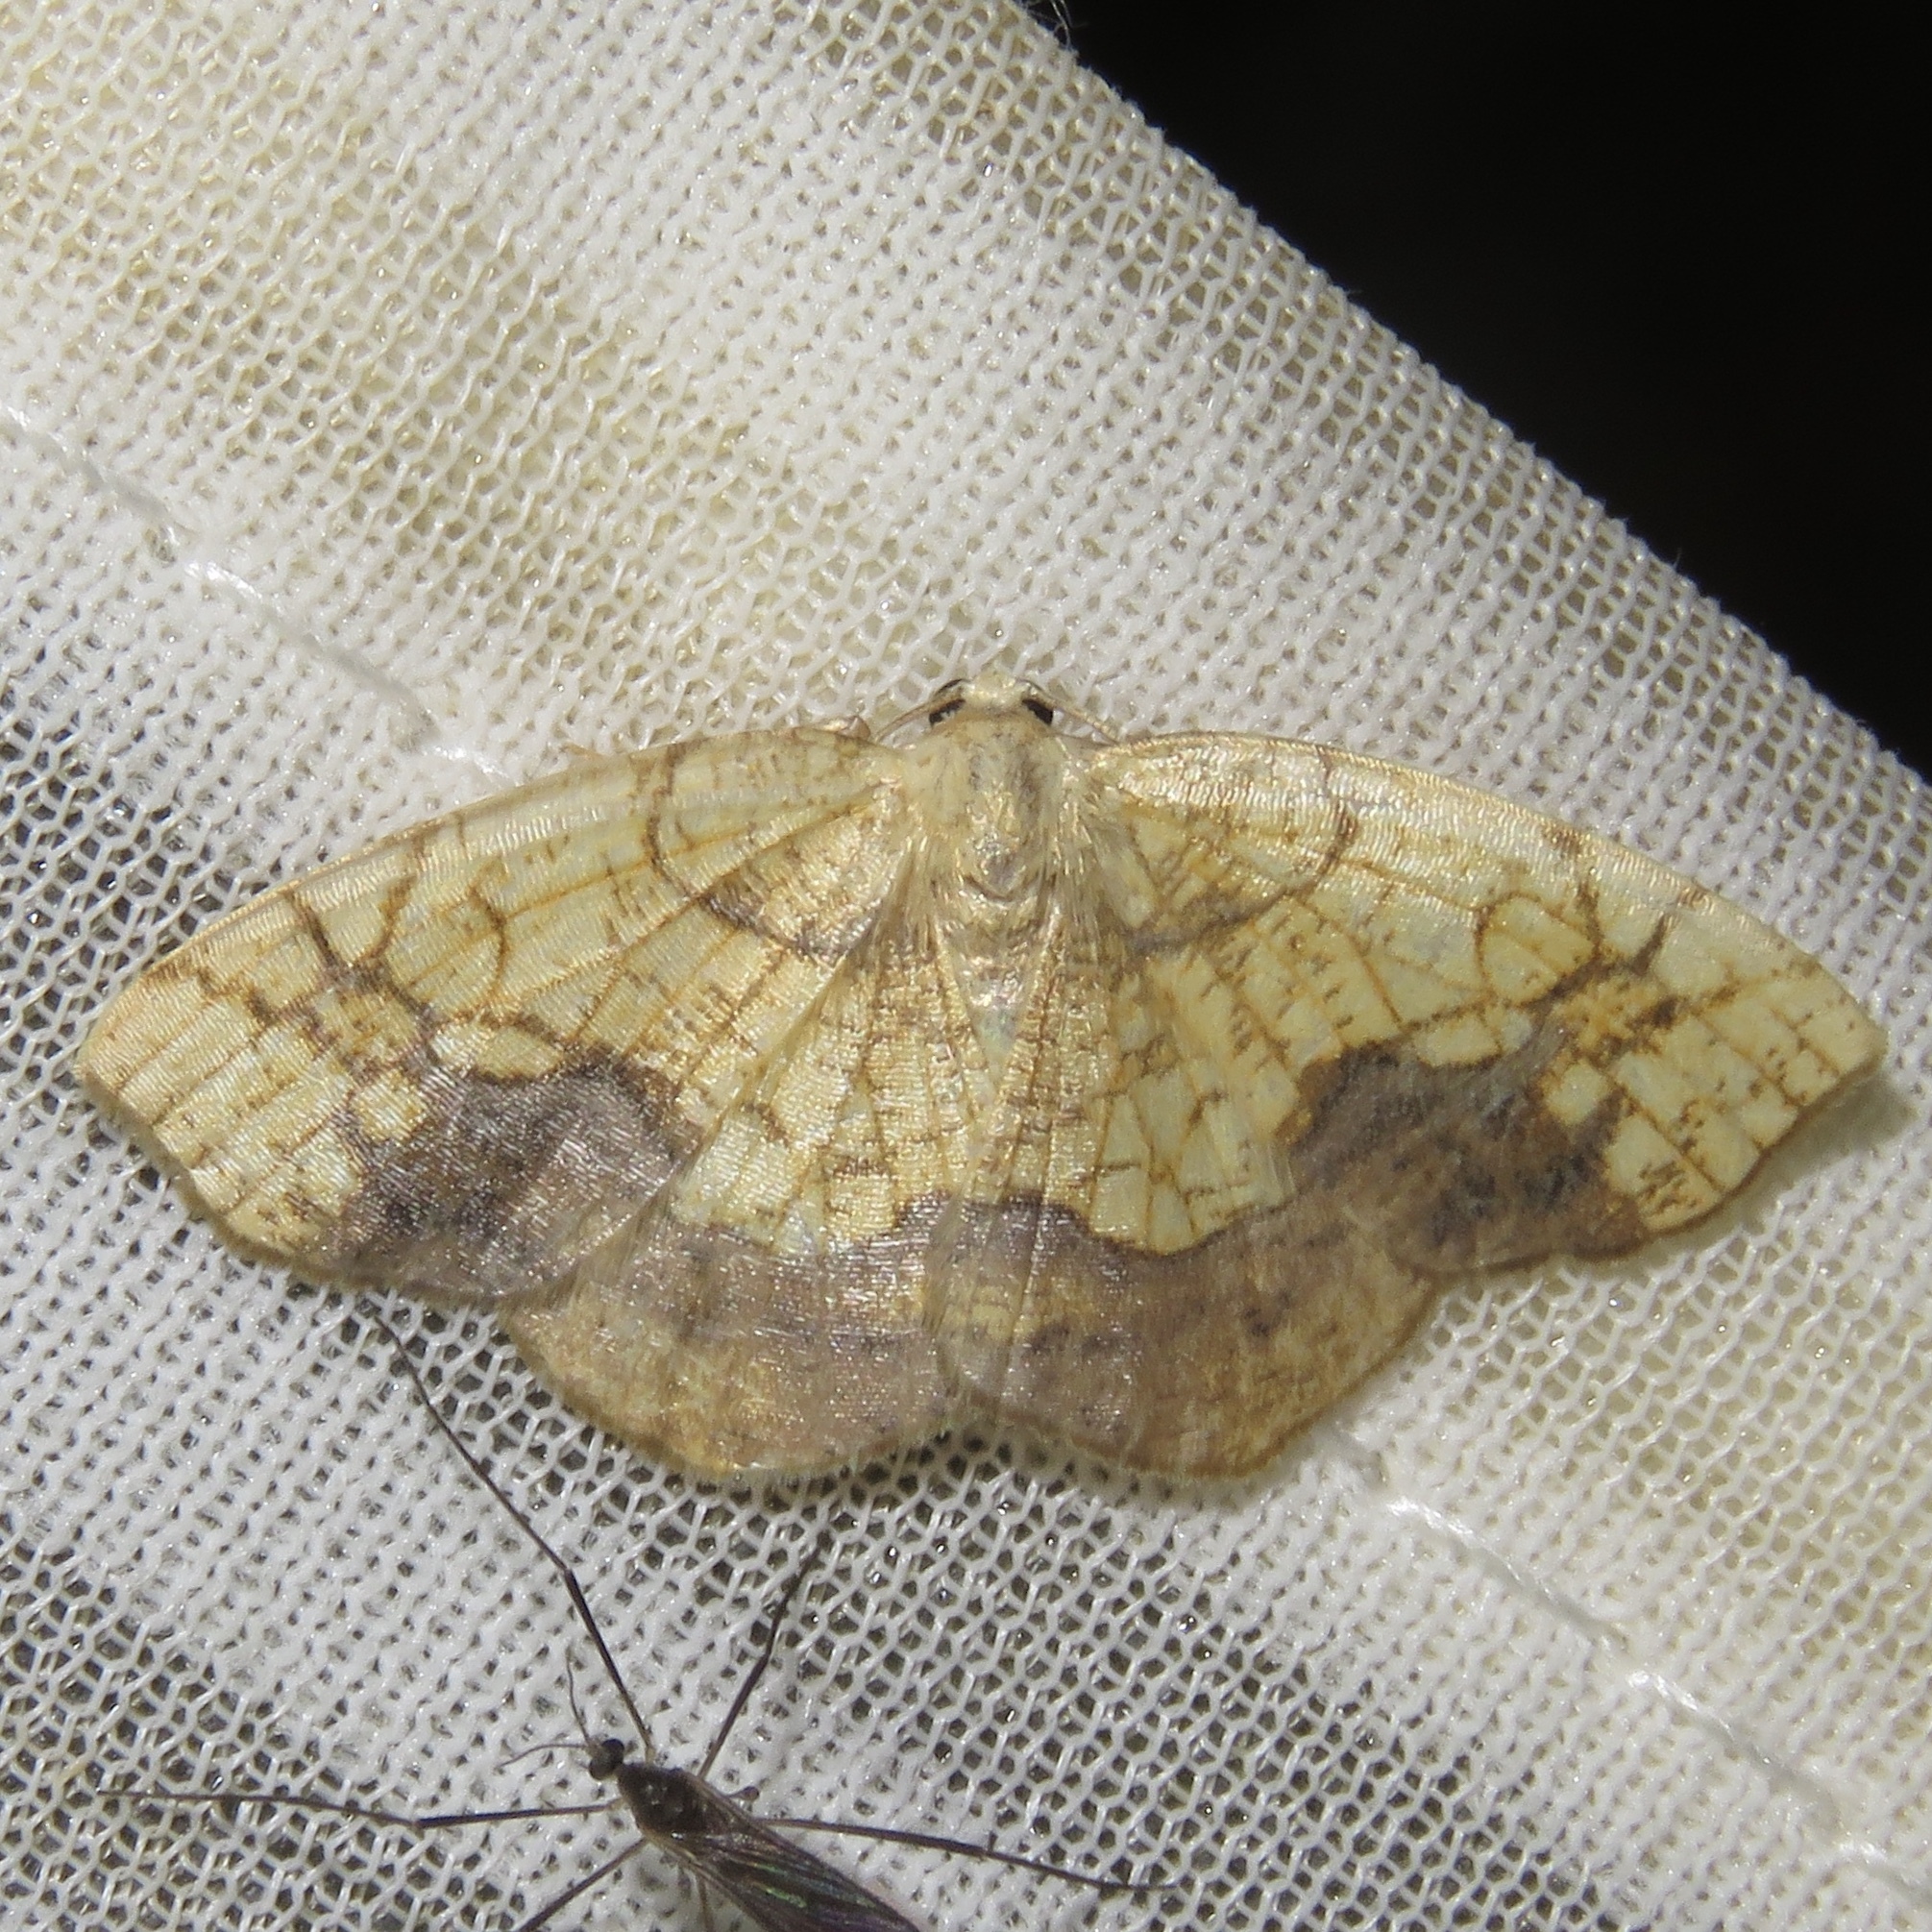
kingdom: Animalia
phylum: Arthropoda
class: Insecta
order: Lepidoptera
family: Geometridae
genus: Nematocampa
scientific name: Nematocampa resistaria
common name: Horned spanworm moth
